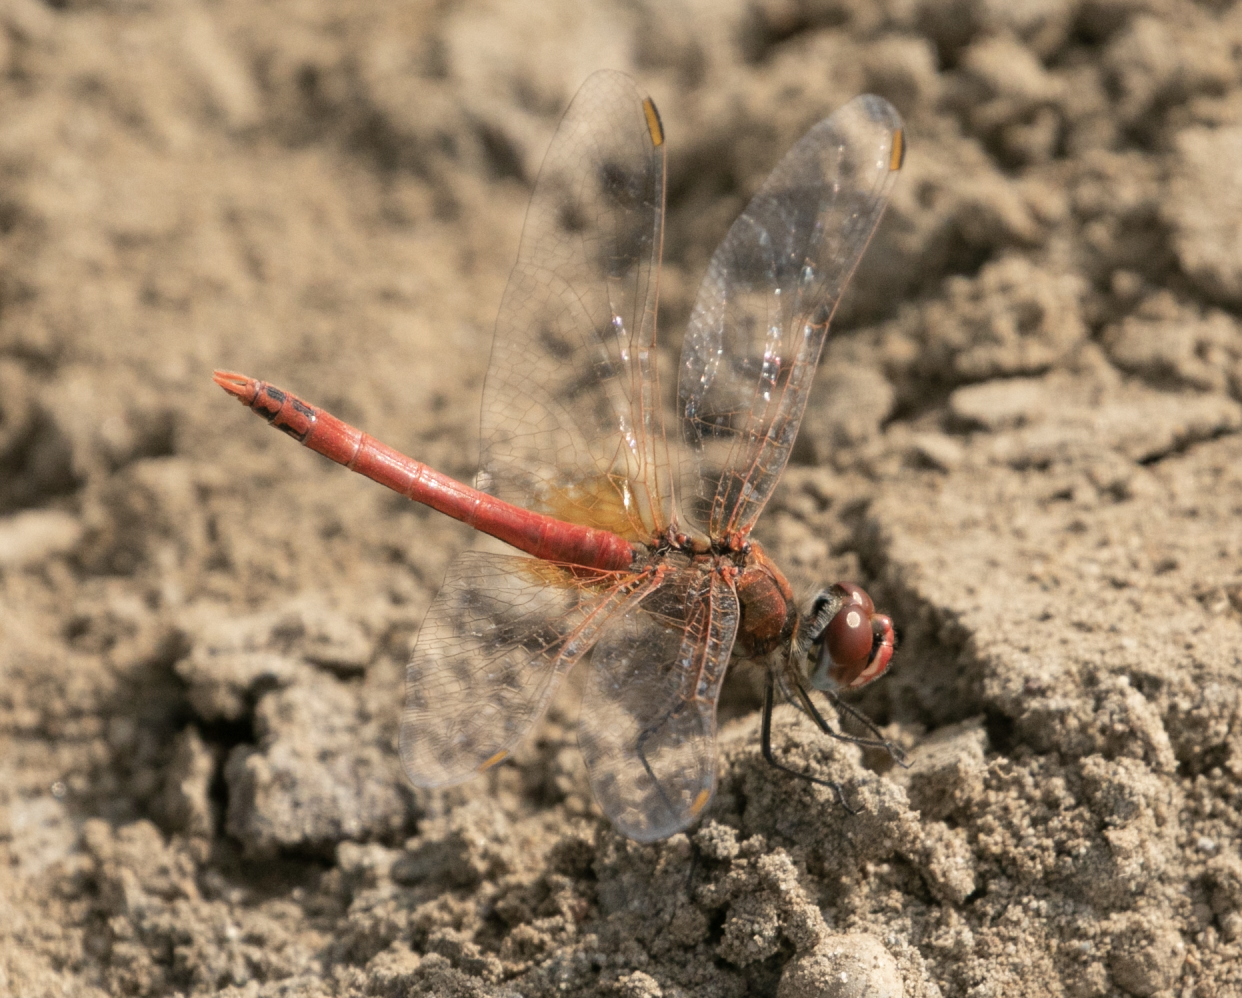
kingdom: Animalia
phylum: Arthropoda
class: Insecta
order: Odonata
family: Libellulidae
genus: Sympetrum
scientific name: Sympetrum fonscolombii
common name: Red-veined darter
